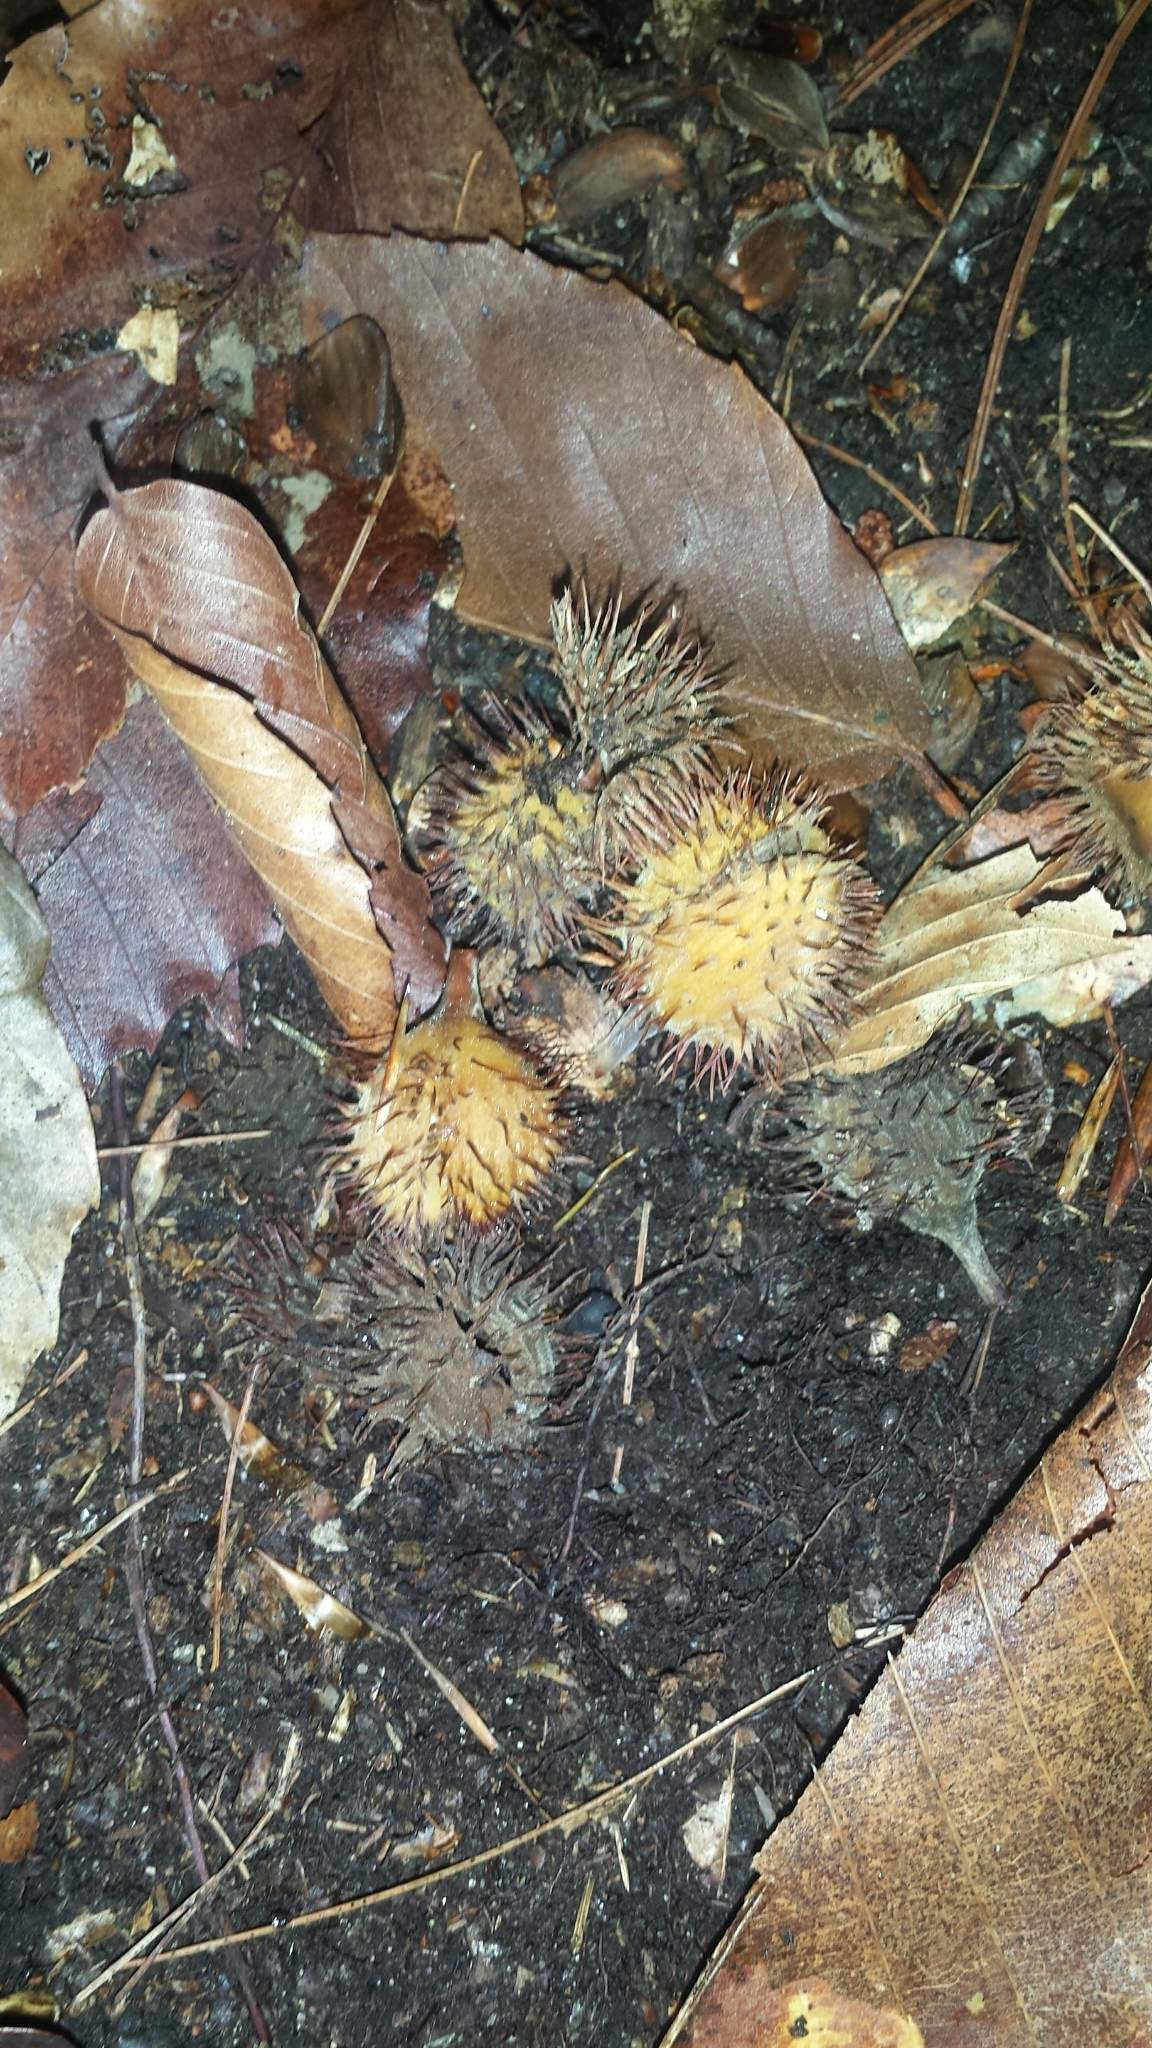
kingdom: Plantae
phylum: Tracheophyta
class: Magnoliopsida
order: Fagales
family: Fagaceae
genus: Fagus
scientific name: Fagus grandifolia
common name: American beech
